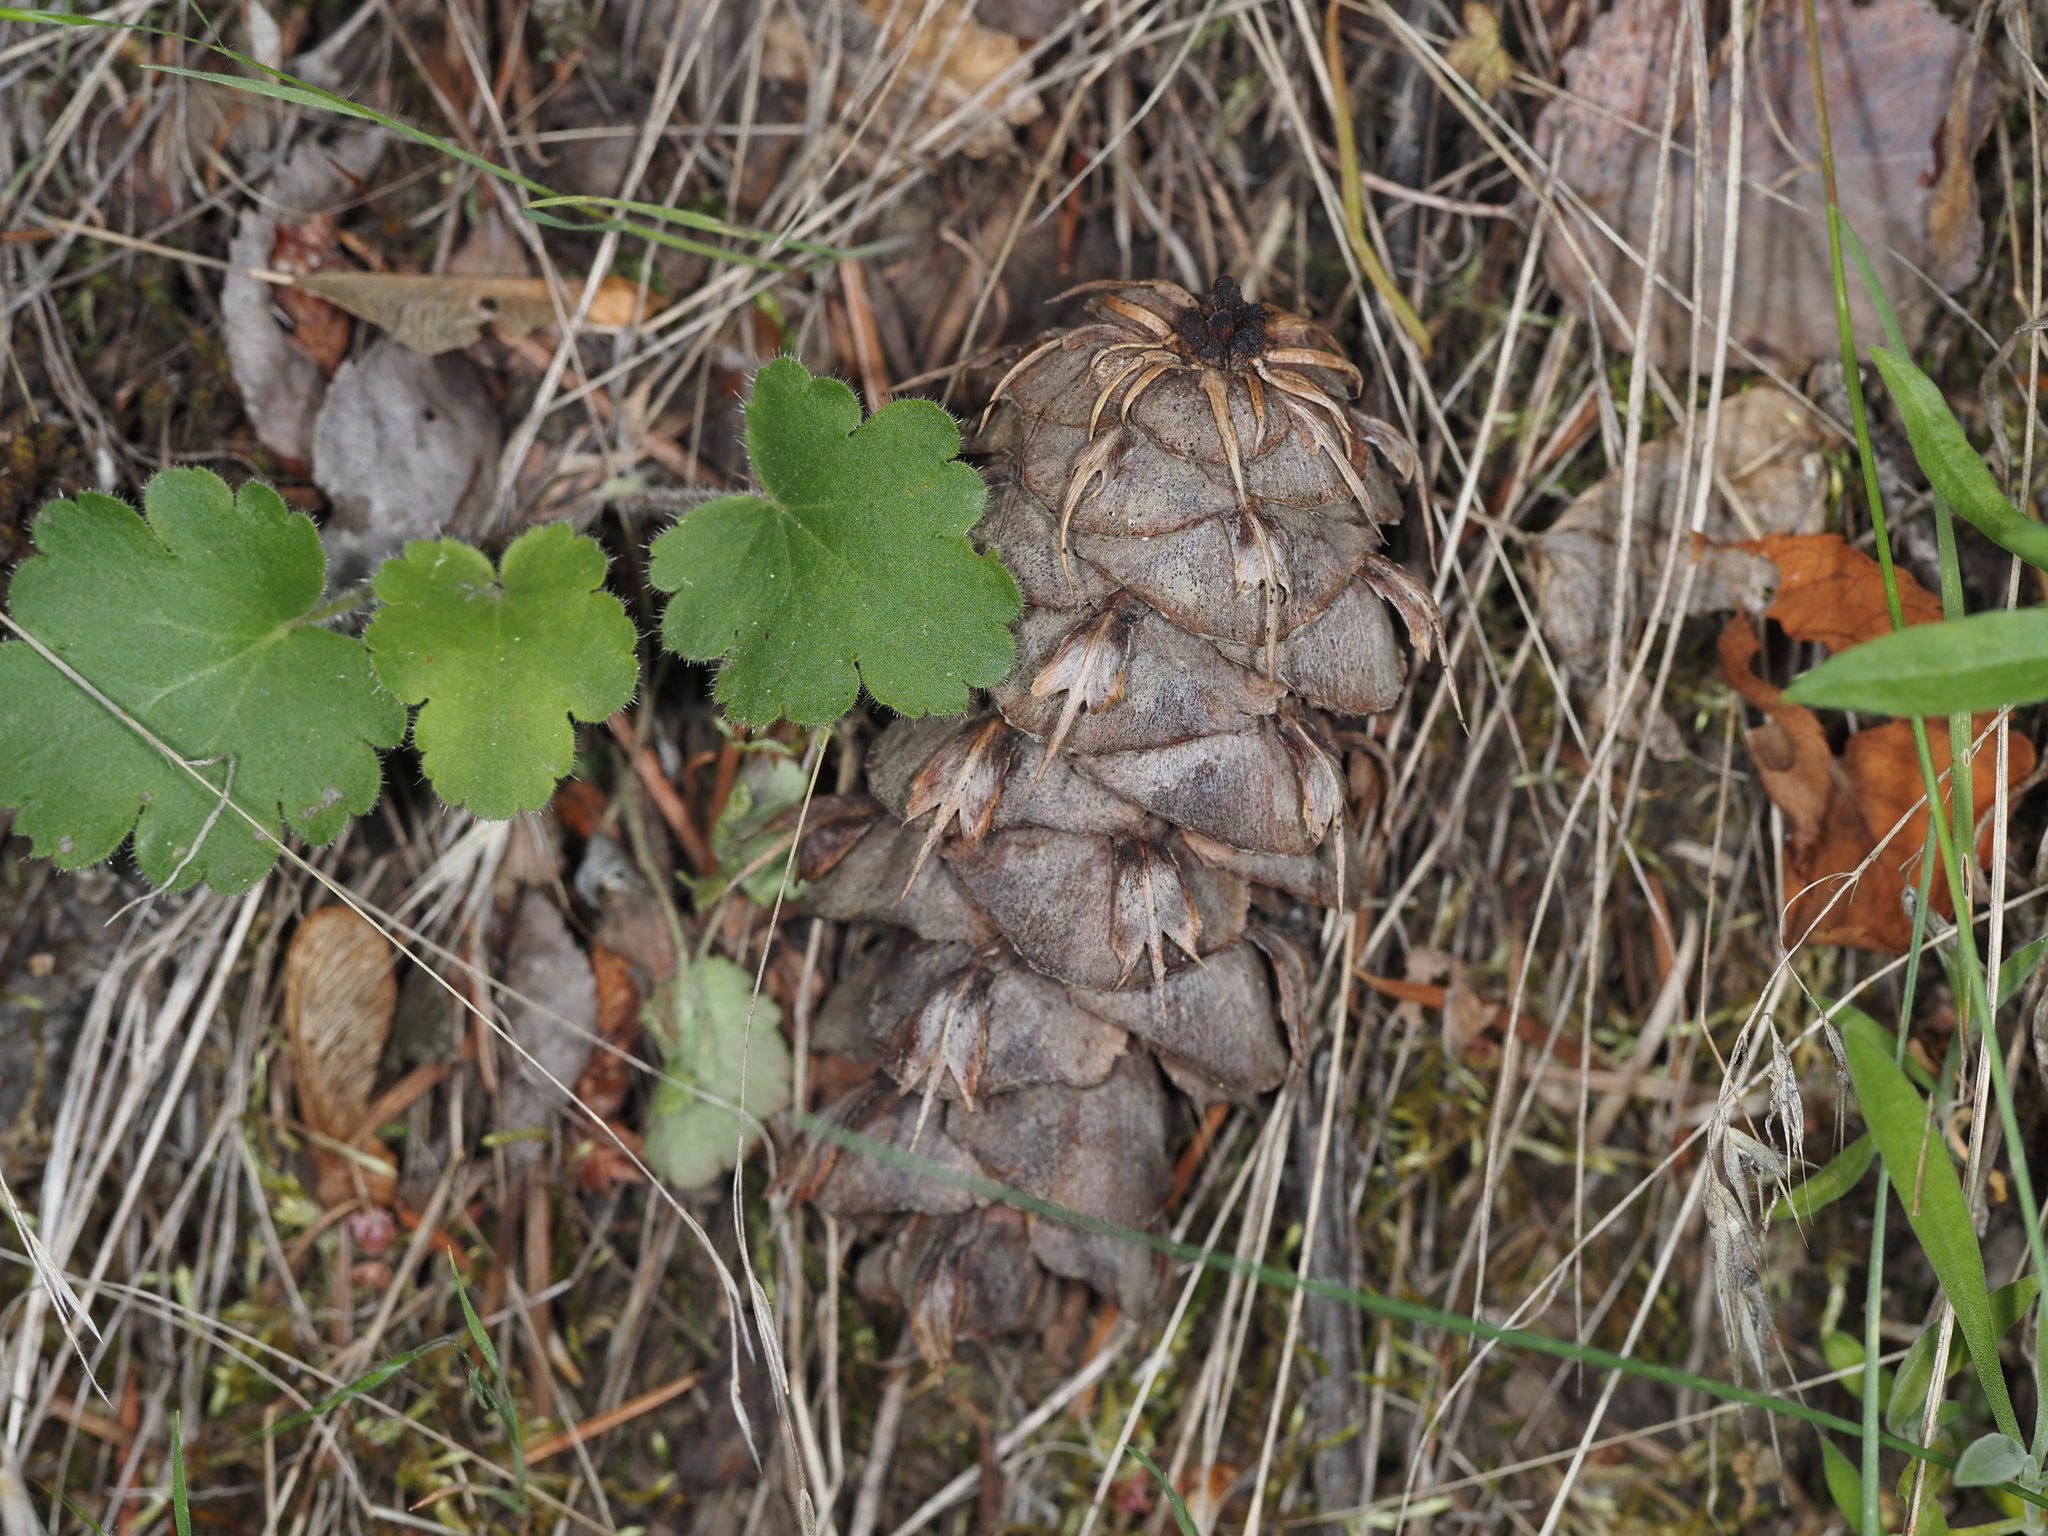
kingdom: Plantae
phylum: Tracheophyta
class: Pinopsida
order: Pinales
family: Pinaceae
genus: Pseudotsuga
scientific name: Pseudotsuga menziesii
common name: Douglas fir
